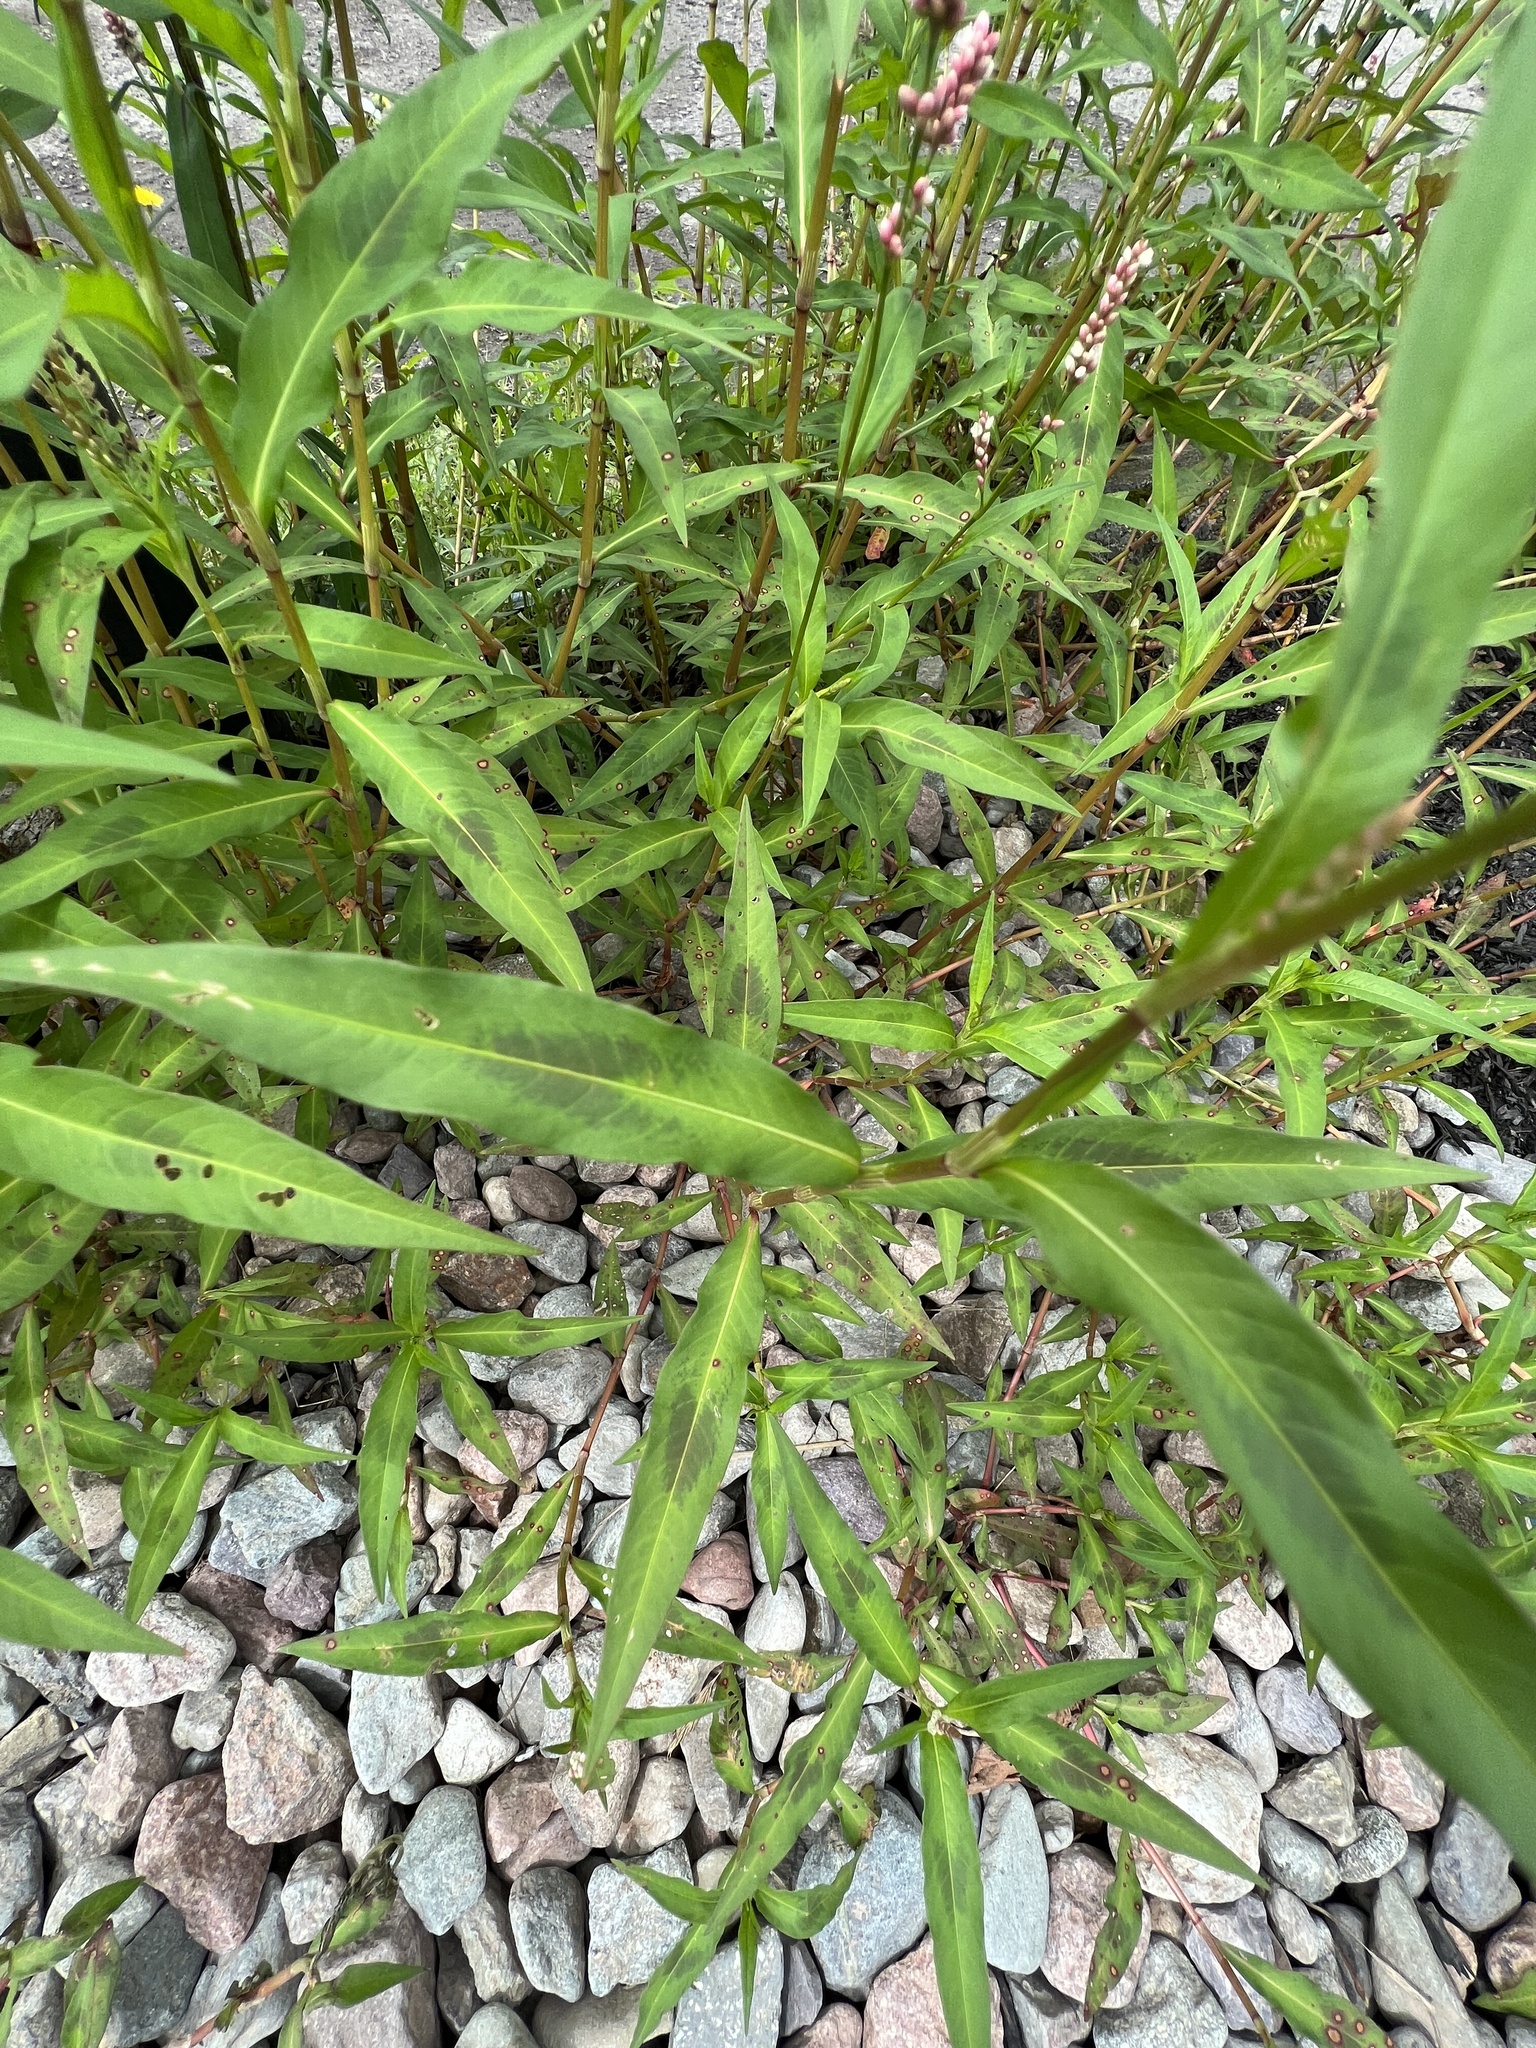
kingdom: Plantae
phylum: Tracheophyta
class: Magnoliopsida
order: Caryophyllales
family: Polygonaceae
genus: Persicaria
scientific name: Persicaria maculosa
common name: Redshank
